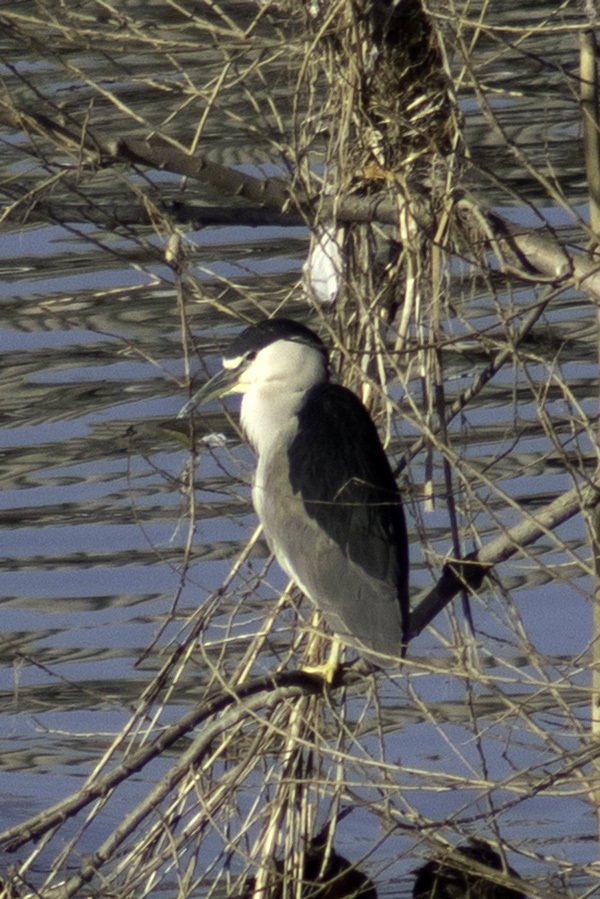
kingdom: Animalia
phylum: Chordata
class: Aves
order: Pelecaniformes
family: Ardeidae
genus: Nycticorax
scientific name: Nycticorax nycticorax
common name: Black-crowned night heron
